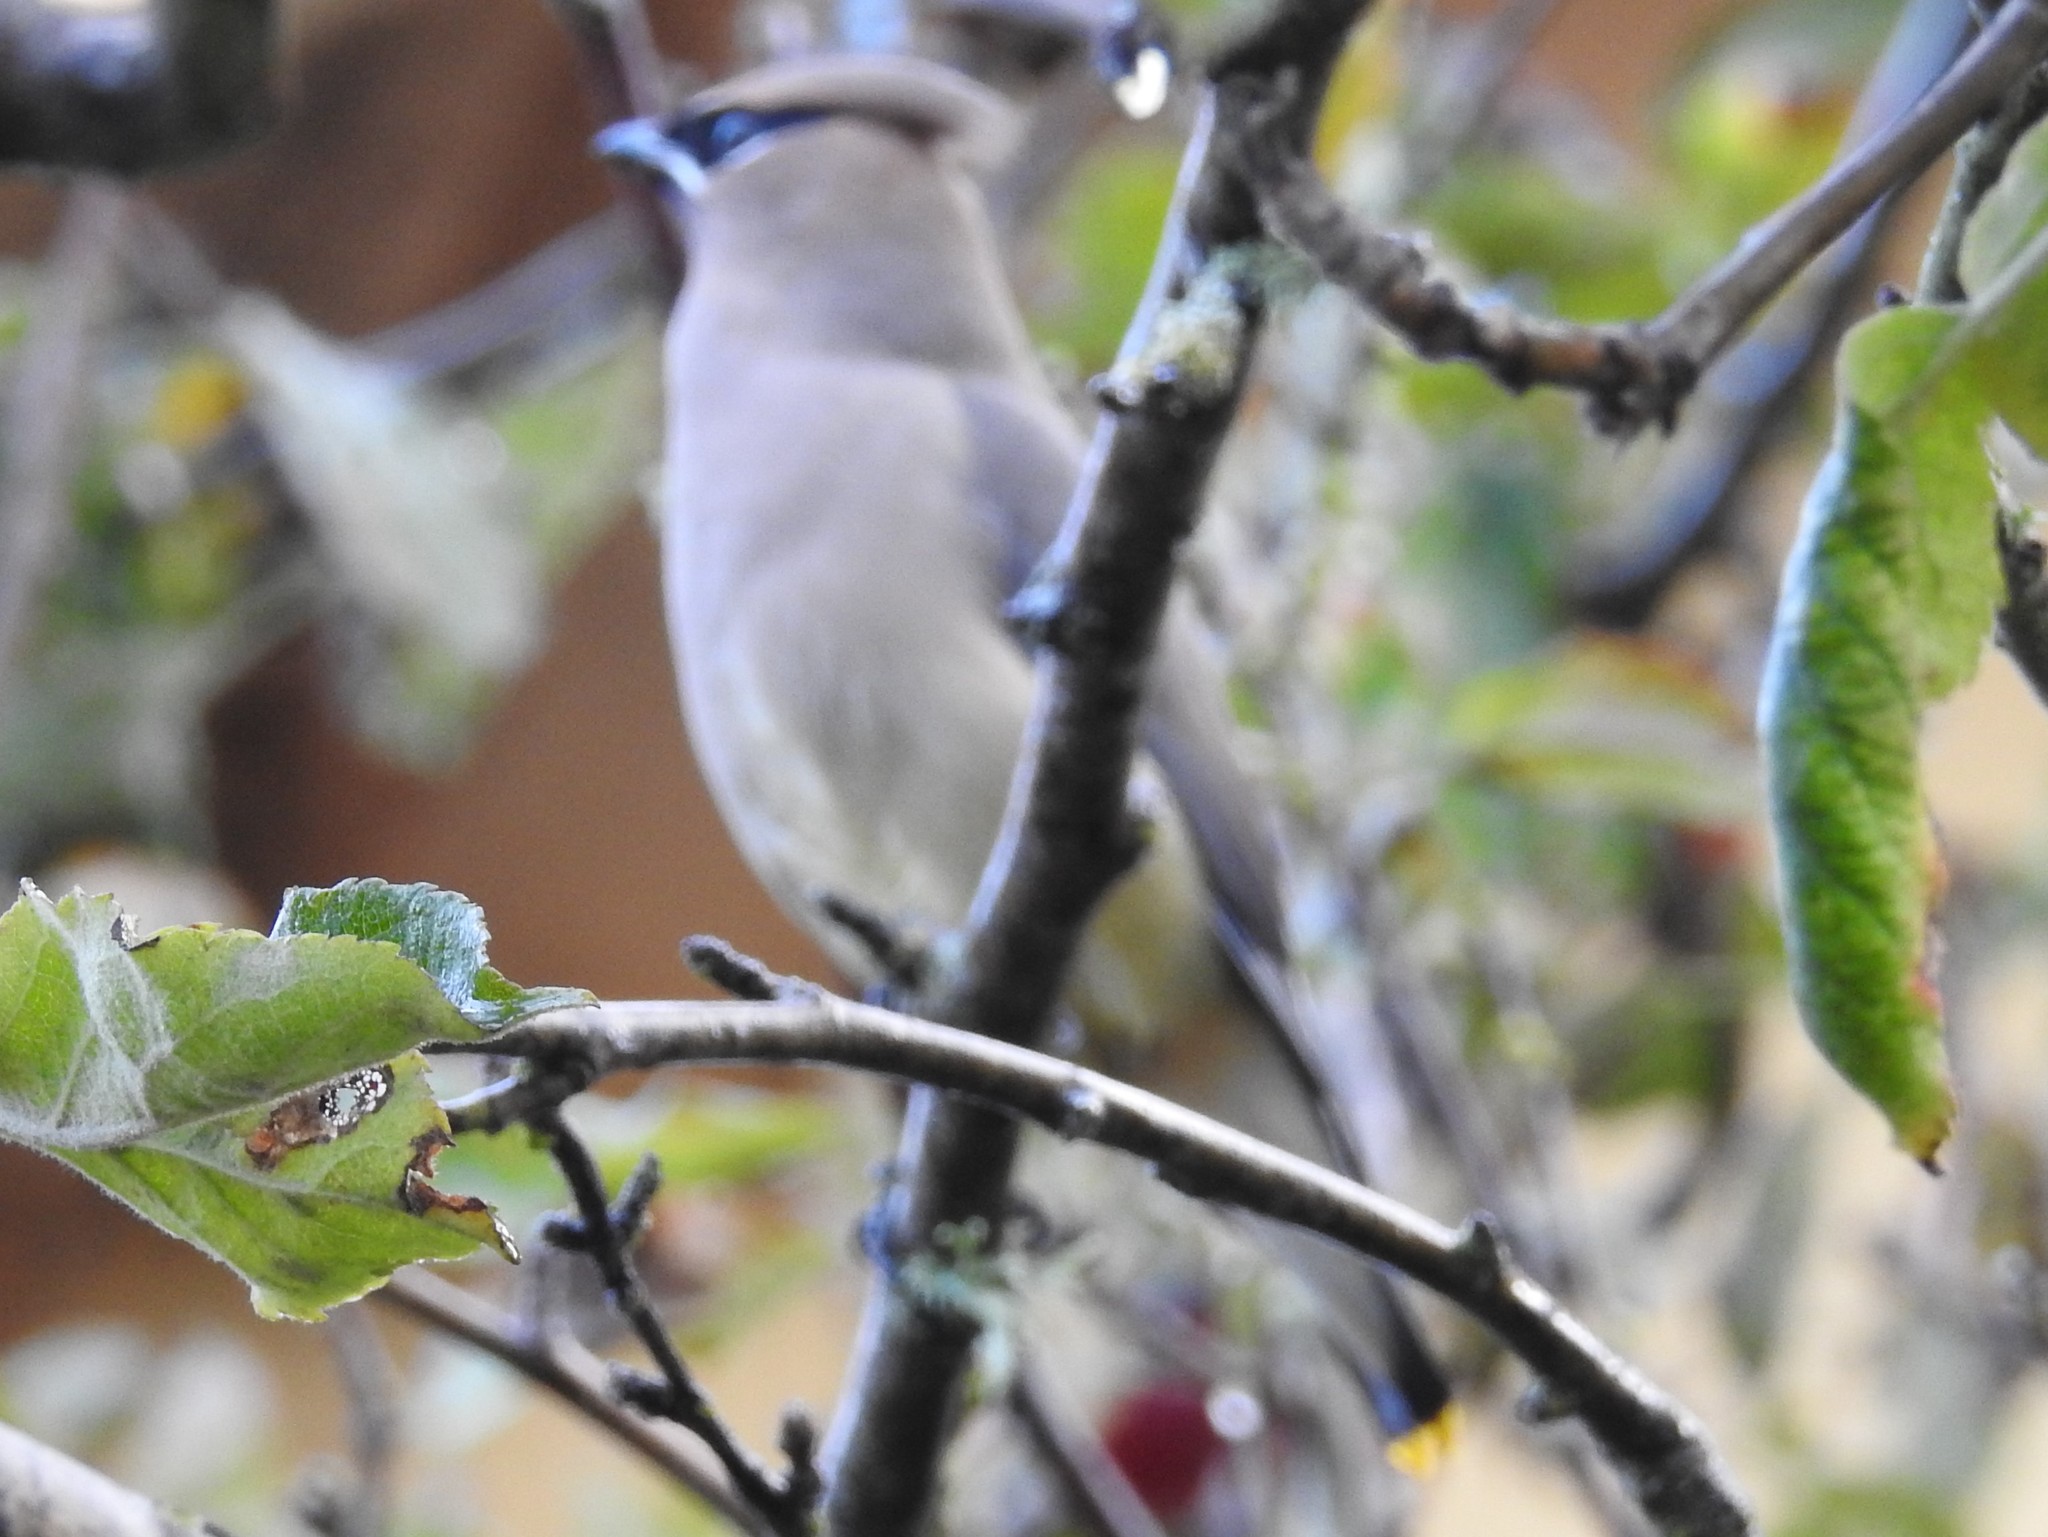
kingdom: Animalia
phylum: Chordata
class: Aves
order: Passeriformes
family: Bombycillidae
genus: Bombycilla
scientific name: Bombycilla cedrorum
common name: Cedar waxwing
